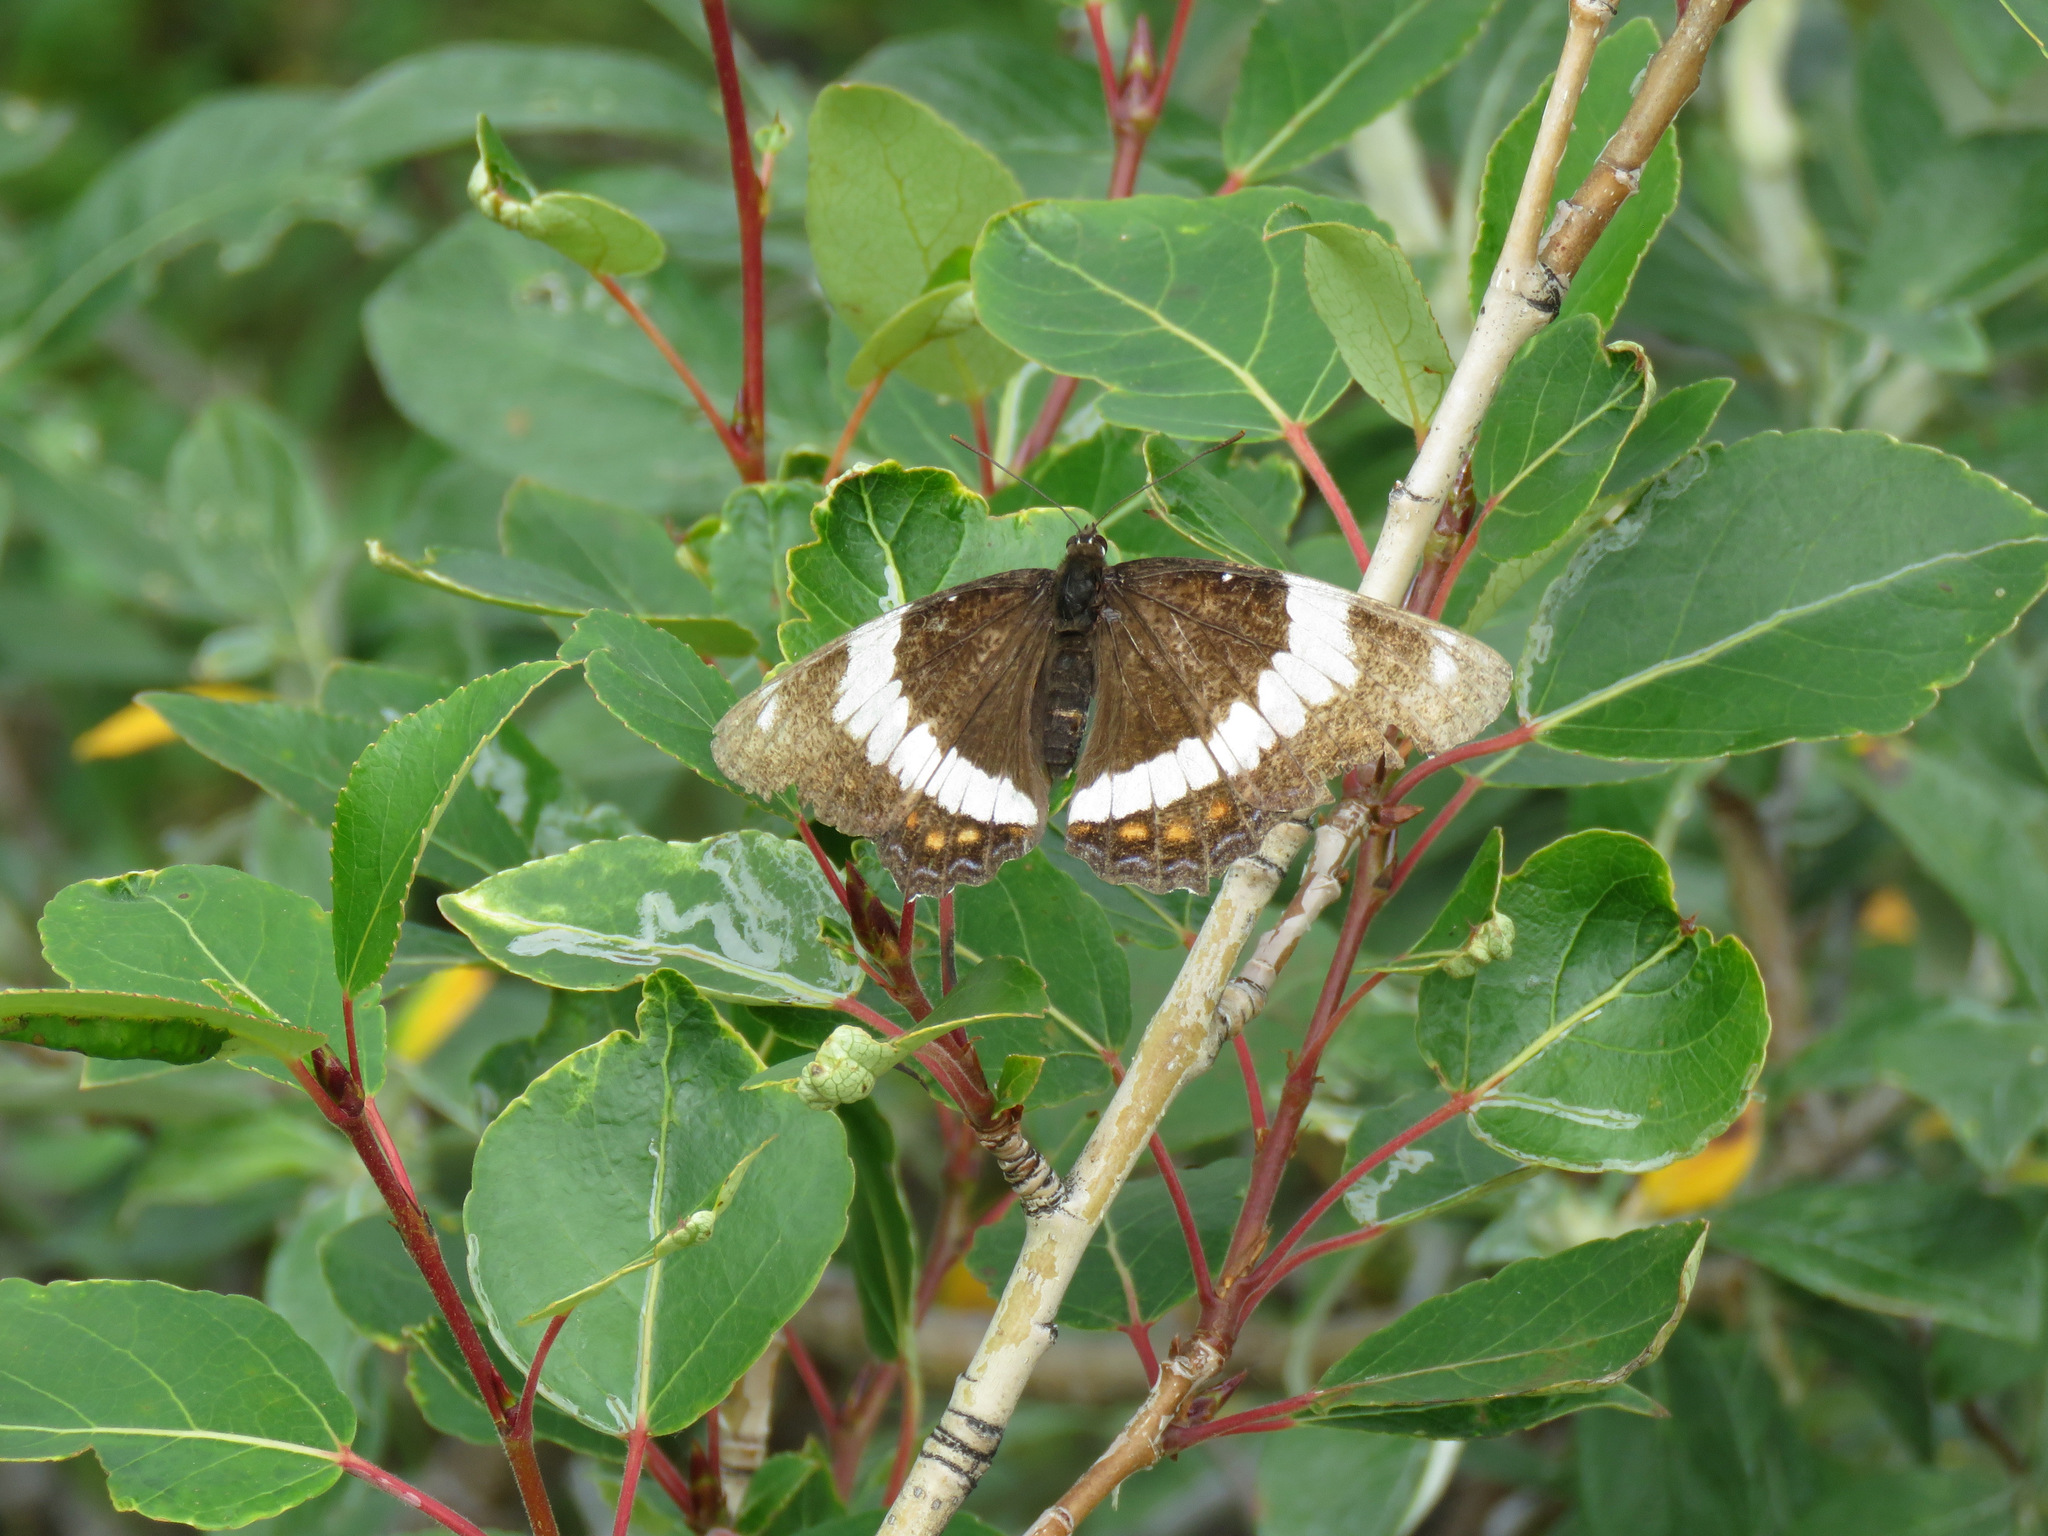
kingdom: Animalia
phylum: Arthropoda
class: Insecta
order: Lepidoptera
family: Nymphalidae
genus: Limenitis
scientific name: Limenitis arthemis
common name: Red-spotted admiral
